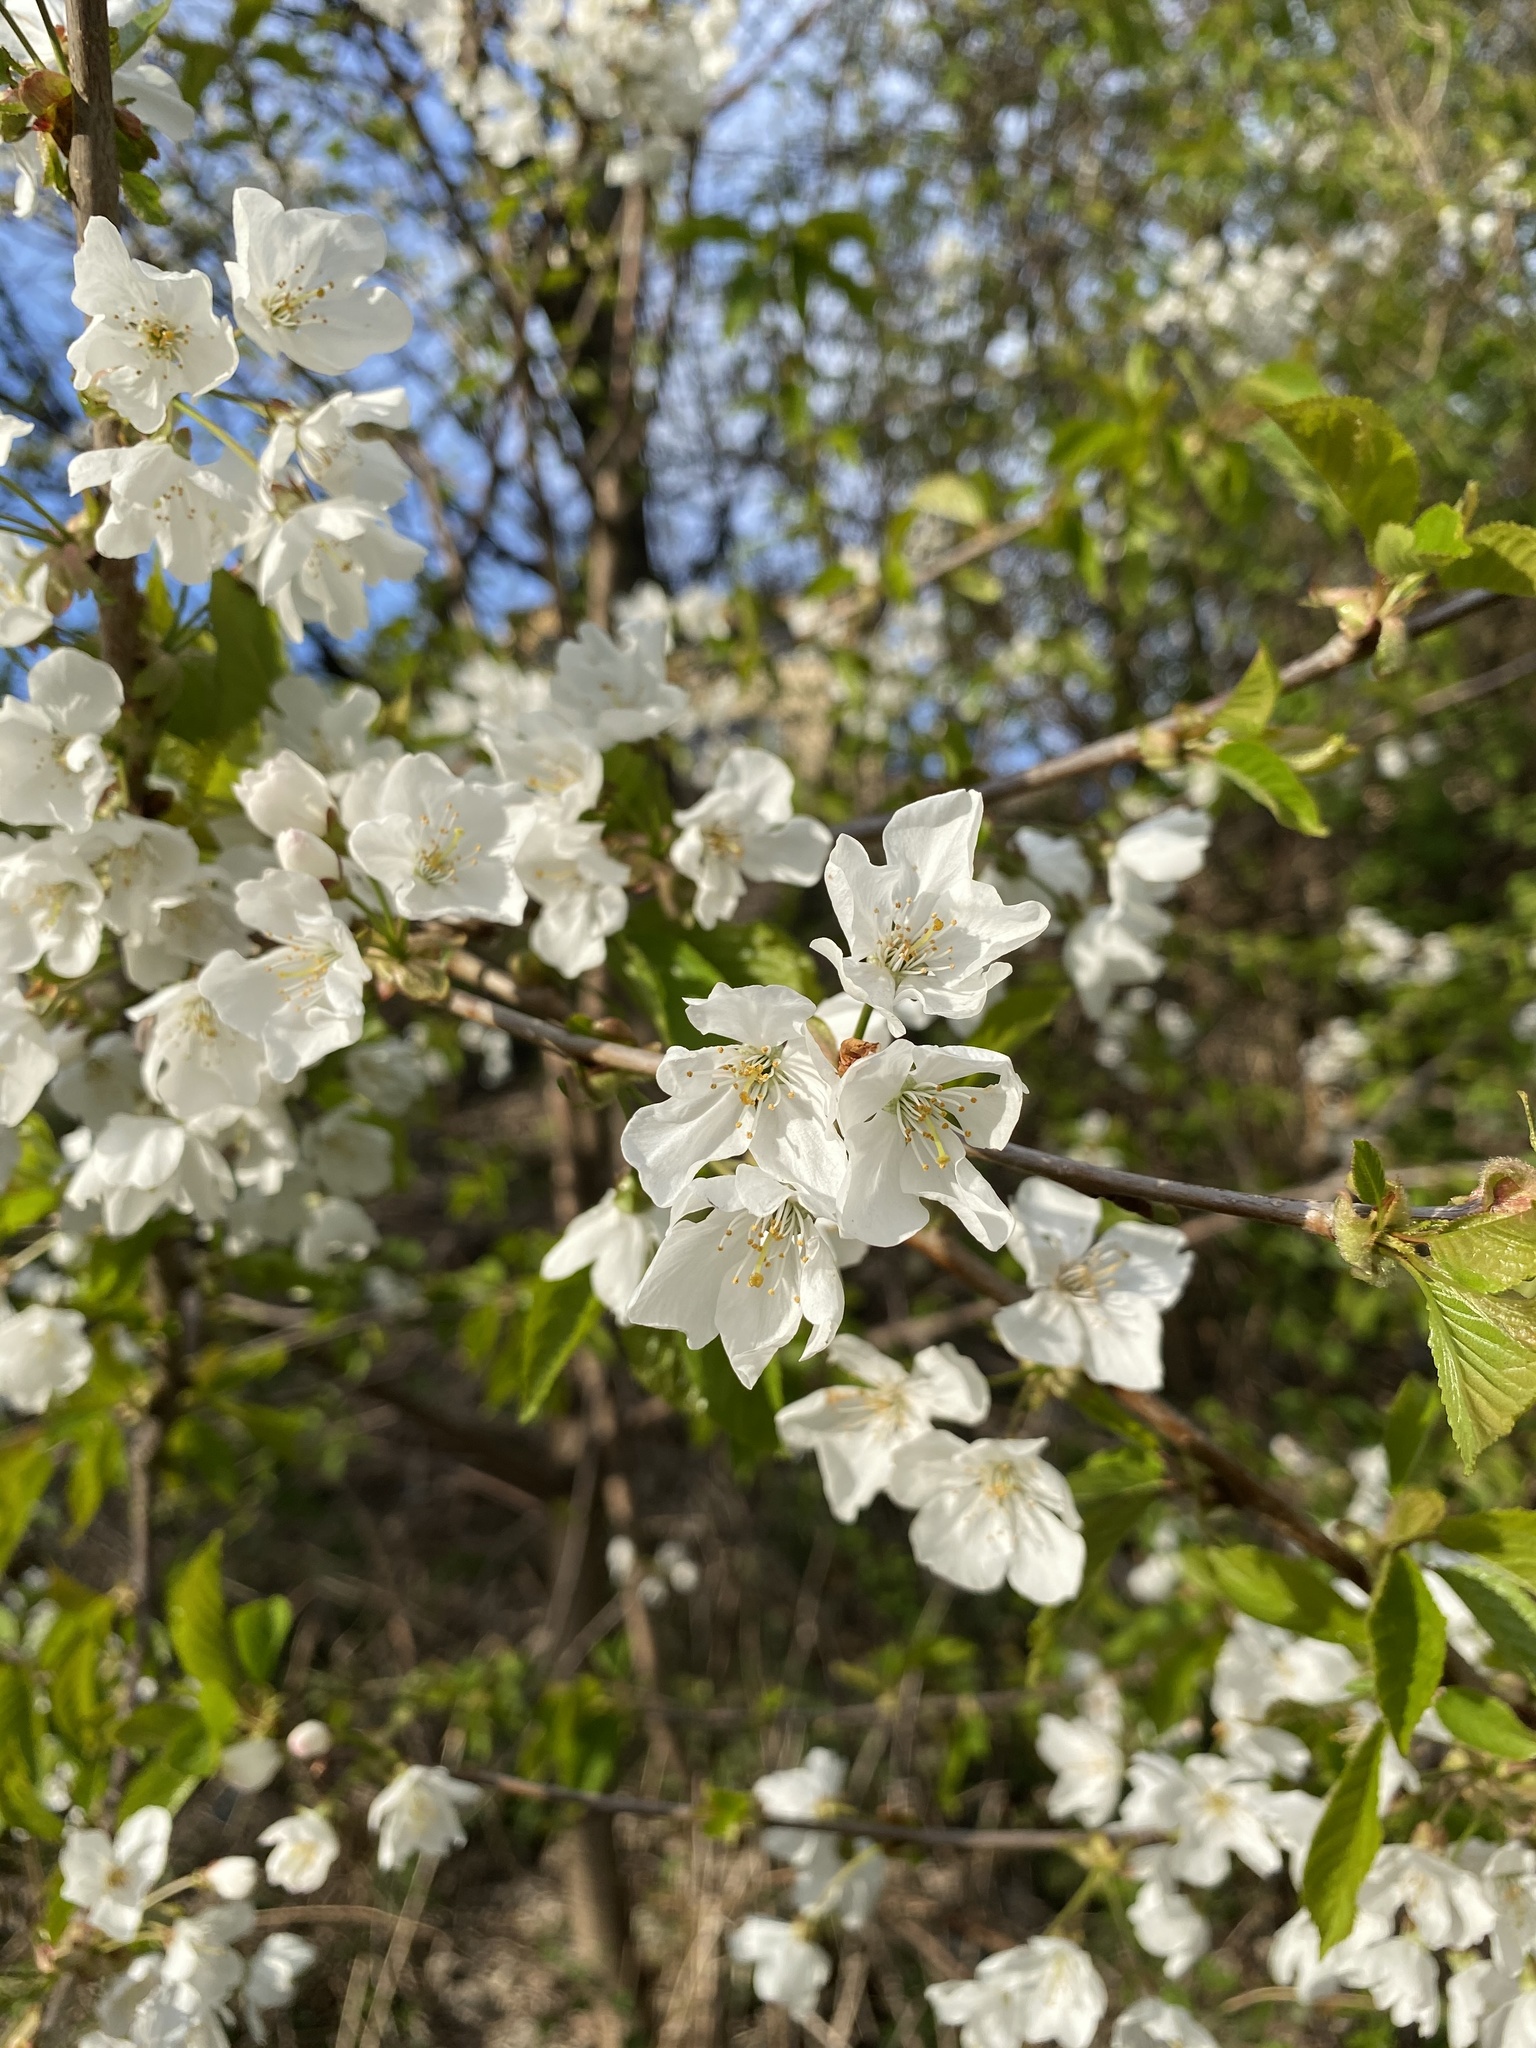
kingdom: Plantae
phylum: Tracheophyta
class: Magnoliopsida
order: Rosales
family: Rosaceae
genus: Prunus
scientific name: Prunus avium
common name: Sweet cherry
